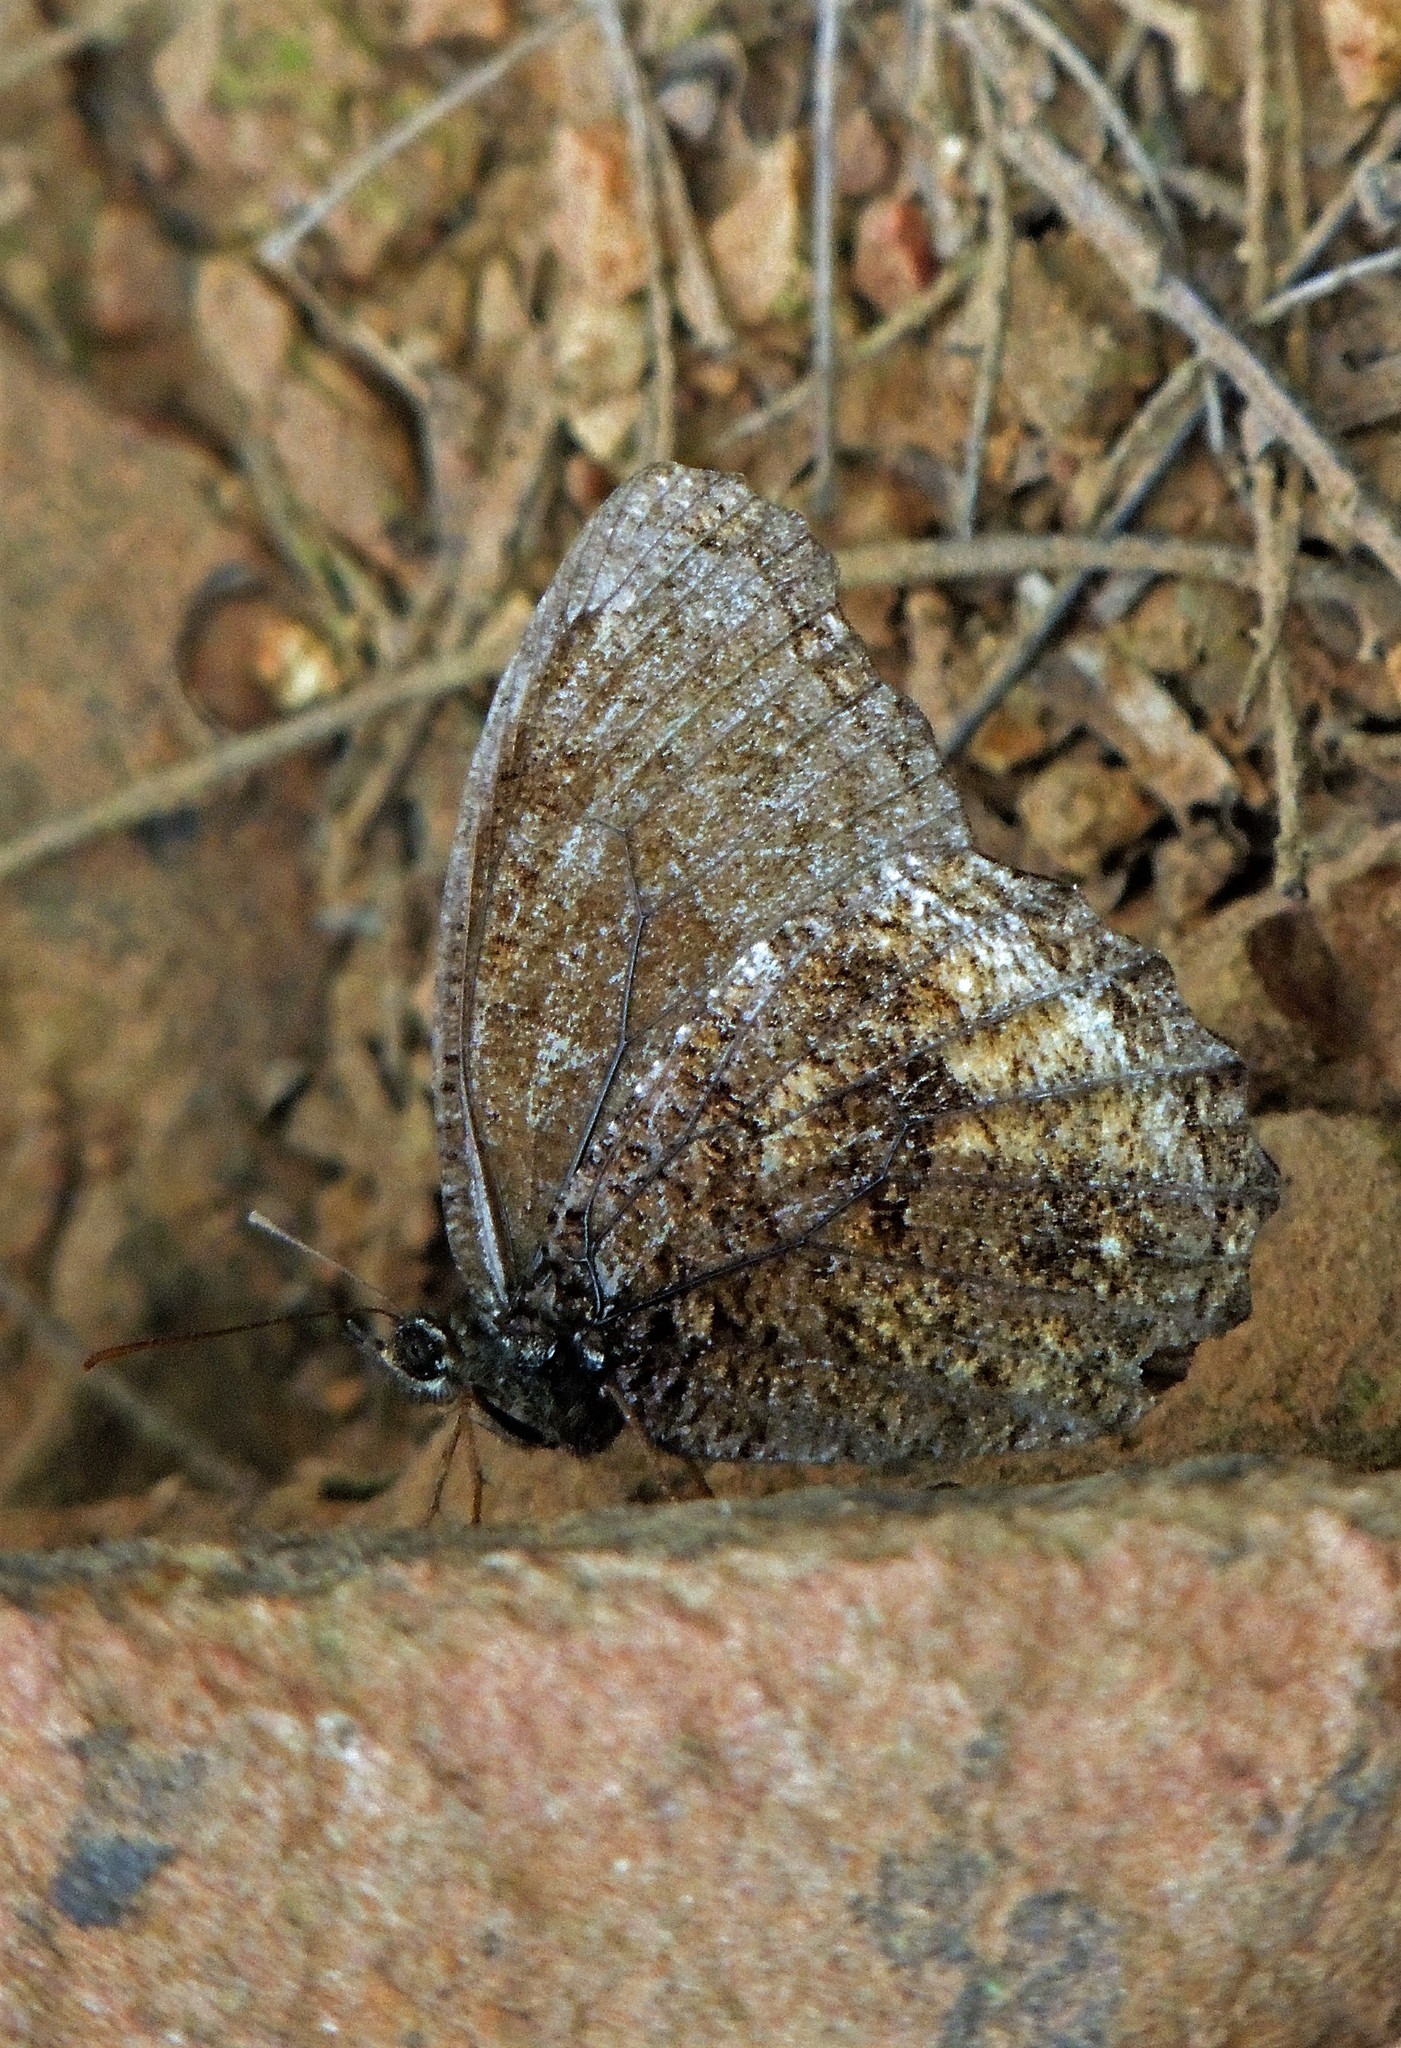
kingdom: Animalia
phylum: Arthropoda
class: Insecta
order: Lepidoptera
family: Nymphalidae
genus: Praepedaliodes
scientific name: Praepedaliodes phanias
